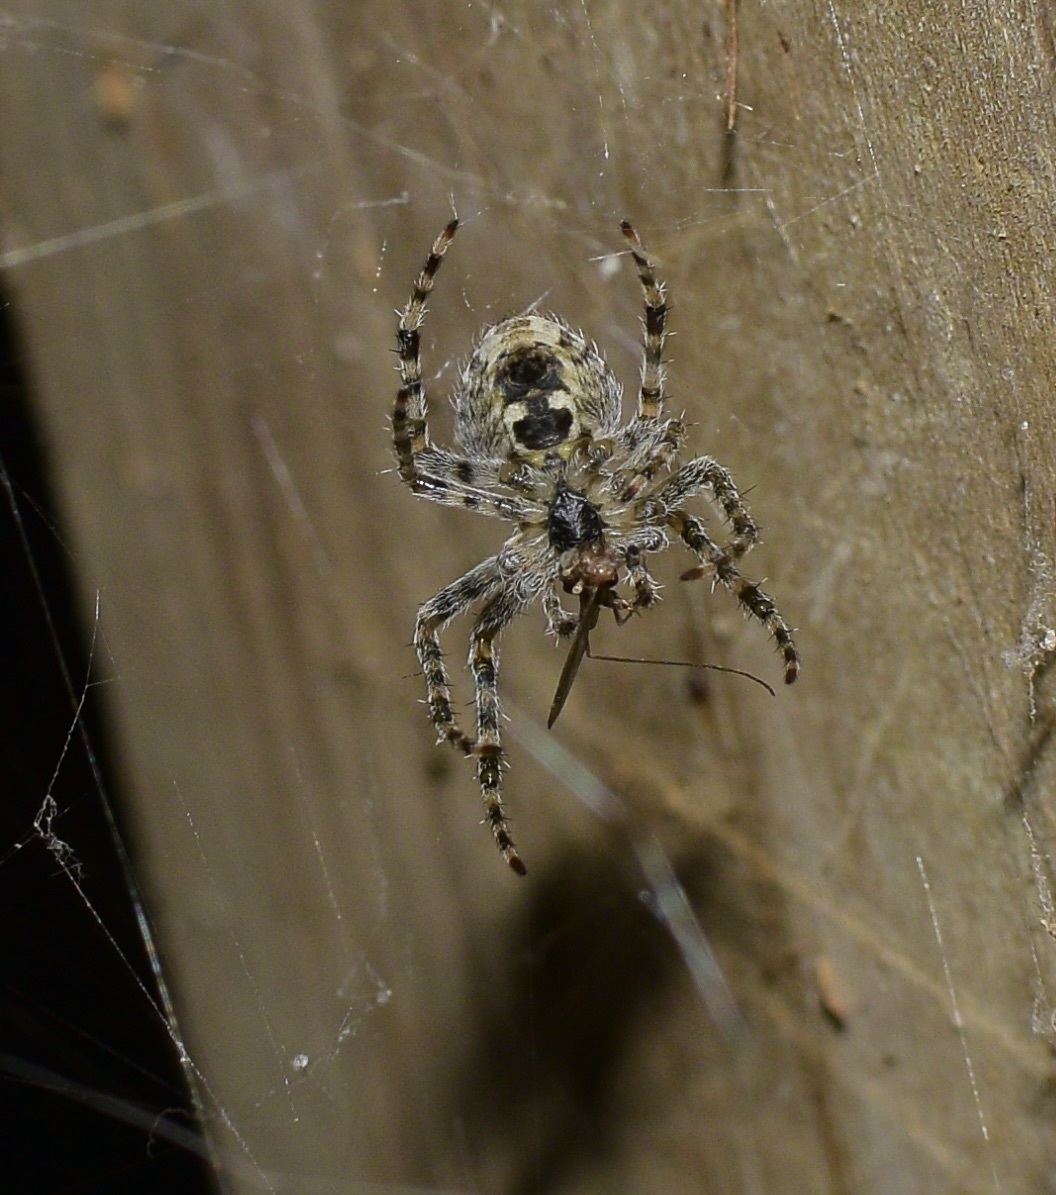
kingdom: Animalia
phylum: Arthropoda
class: Arachnida
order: Araneae
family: Araneidae
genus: Araneus
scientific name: Araneus cavaticus
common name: Barn orbweaver
